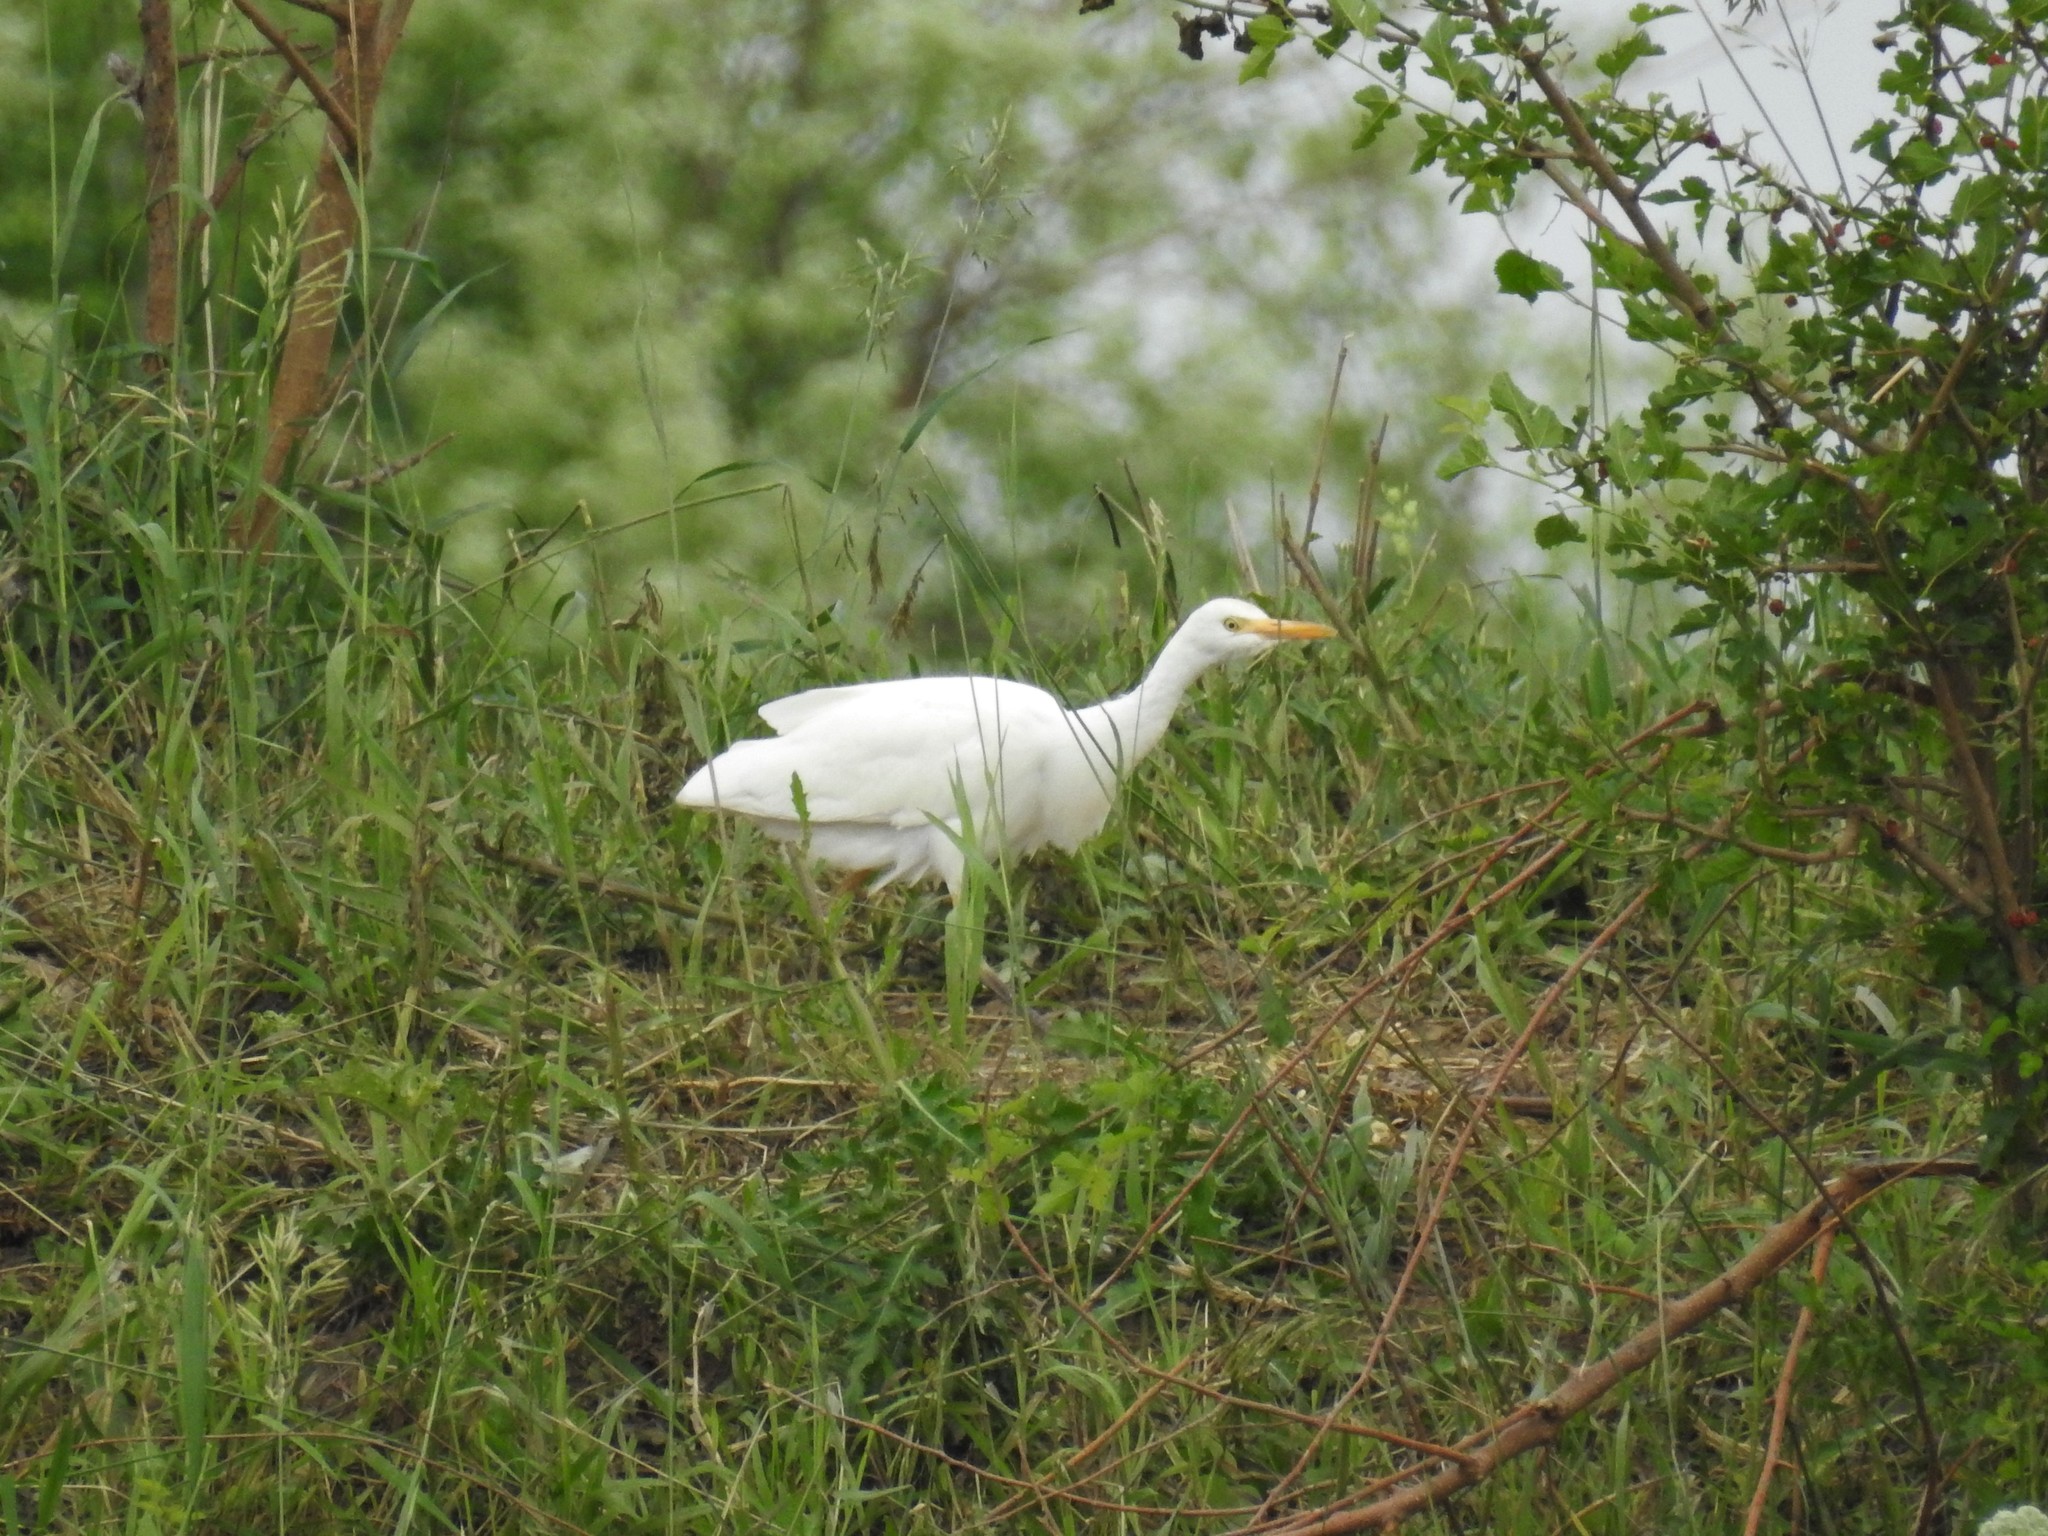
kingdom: Animalia
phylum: Chordata
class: Aves
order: Pelecaniformes
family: Ardeidae
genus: Bubulcus
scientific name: Bubulcus ibis
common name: Cattle egret
